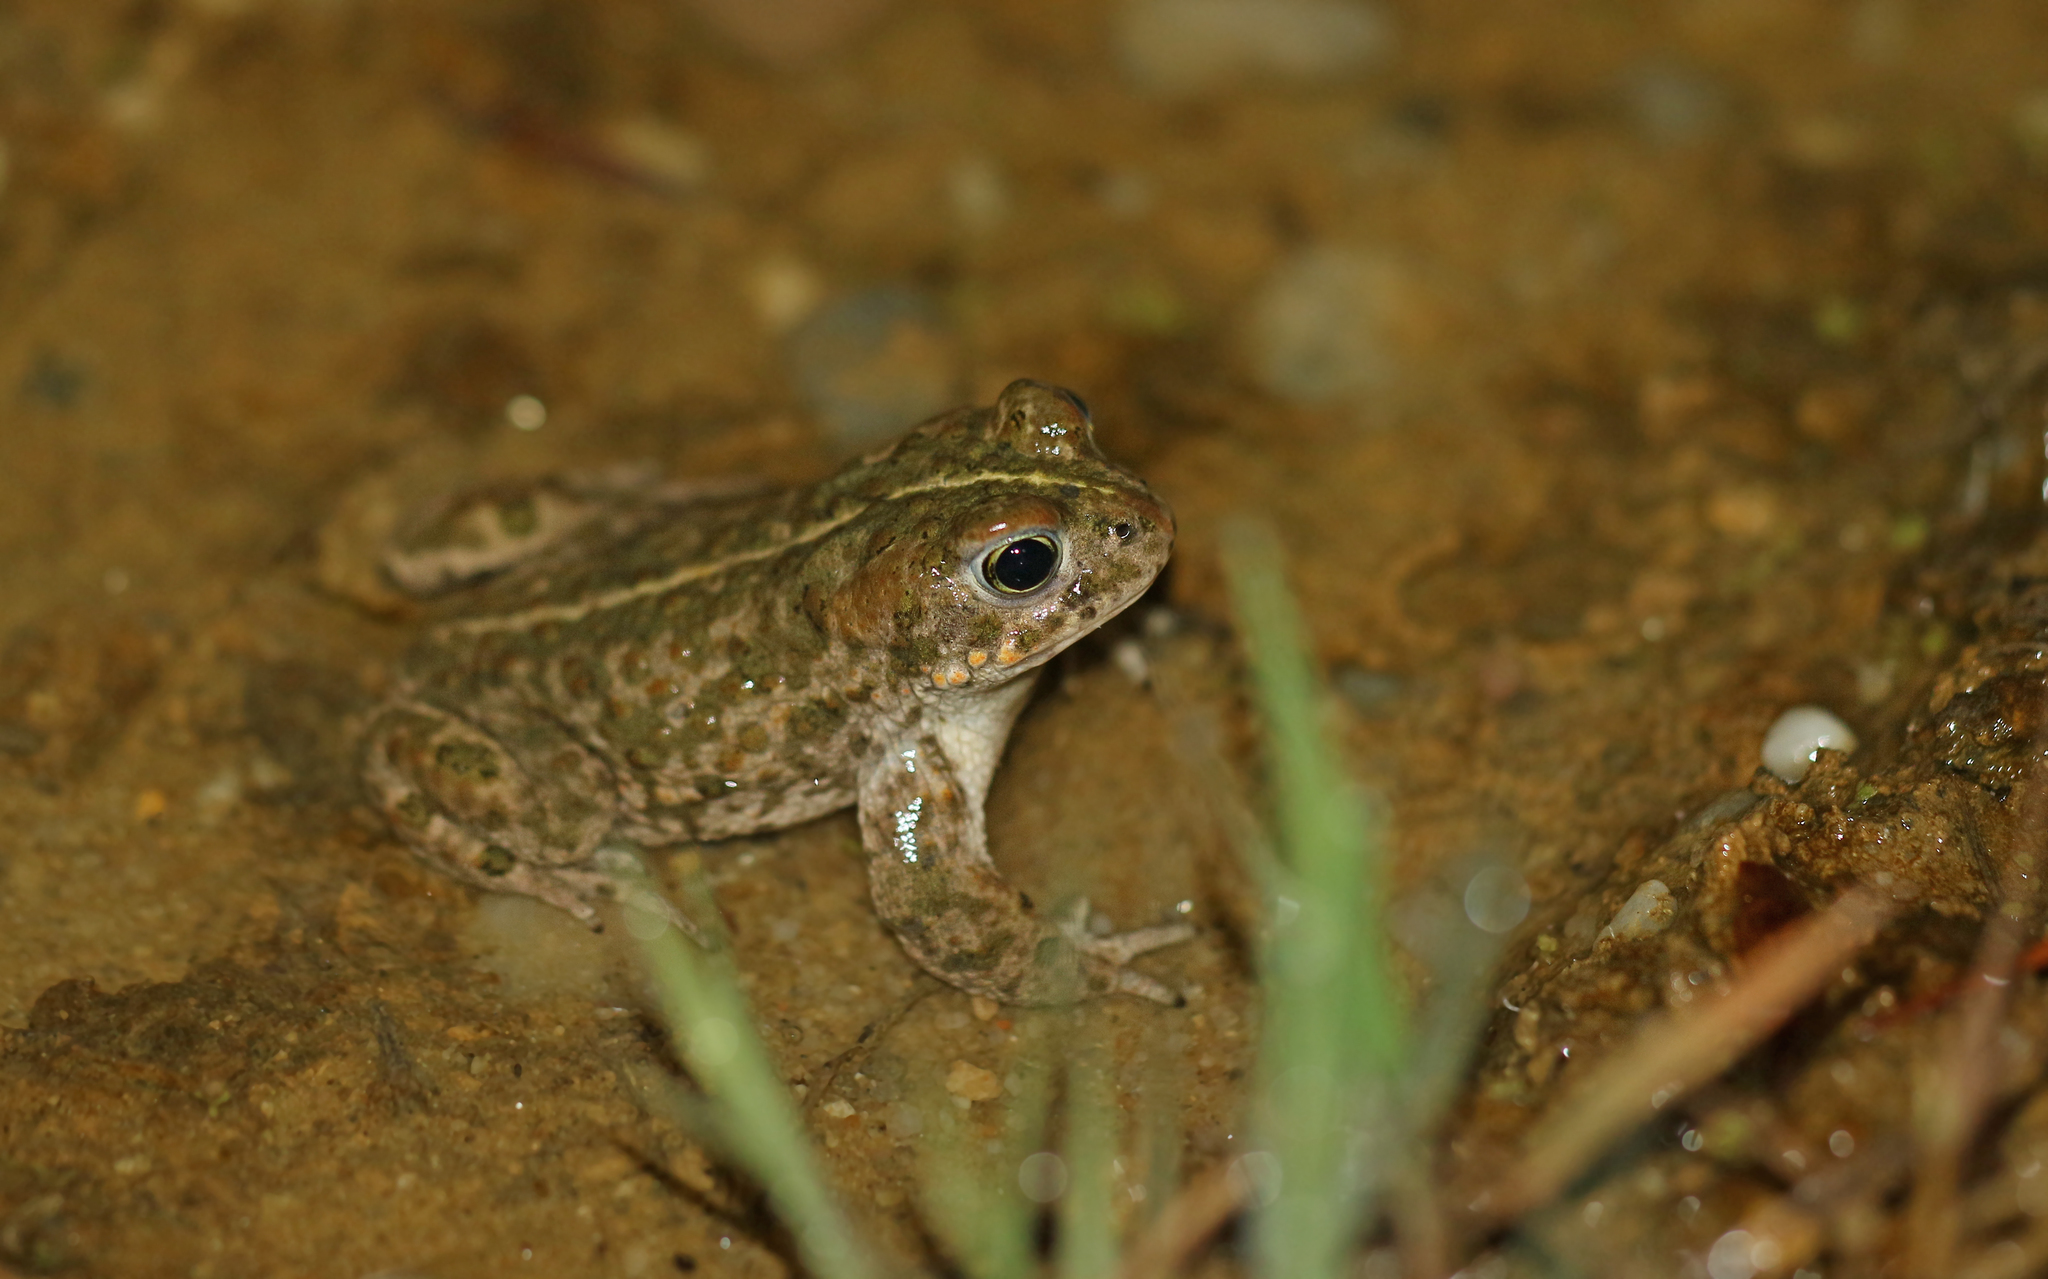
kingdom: Animalia
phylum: Chordata
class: Amphibia
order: Anura
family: Bufonidae
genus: Epidalea
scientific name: Epidalea calamita
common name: Natterjack toad
